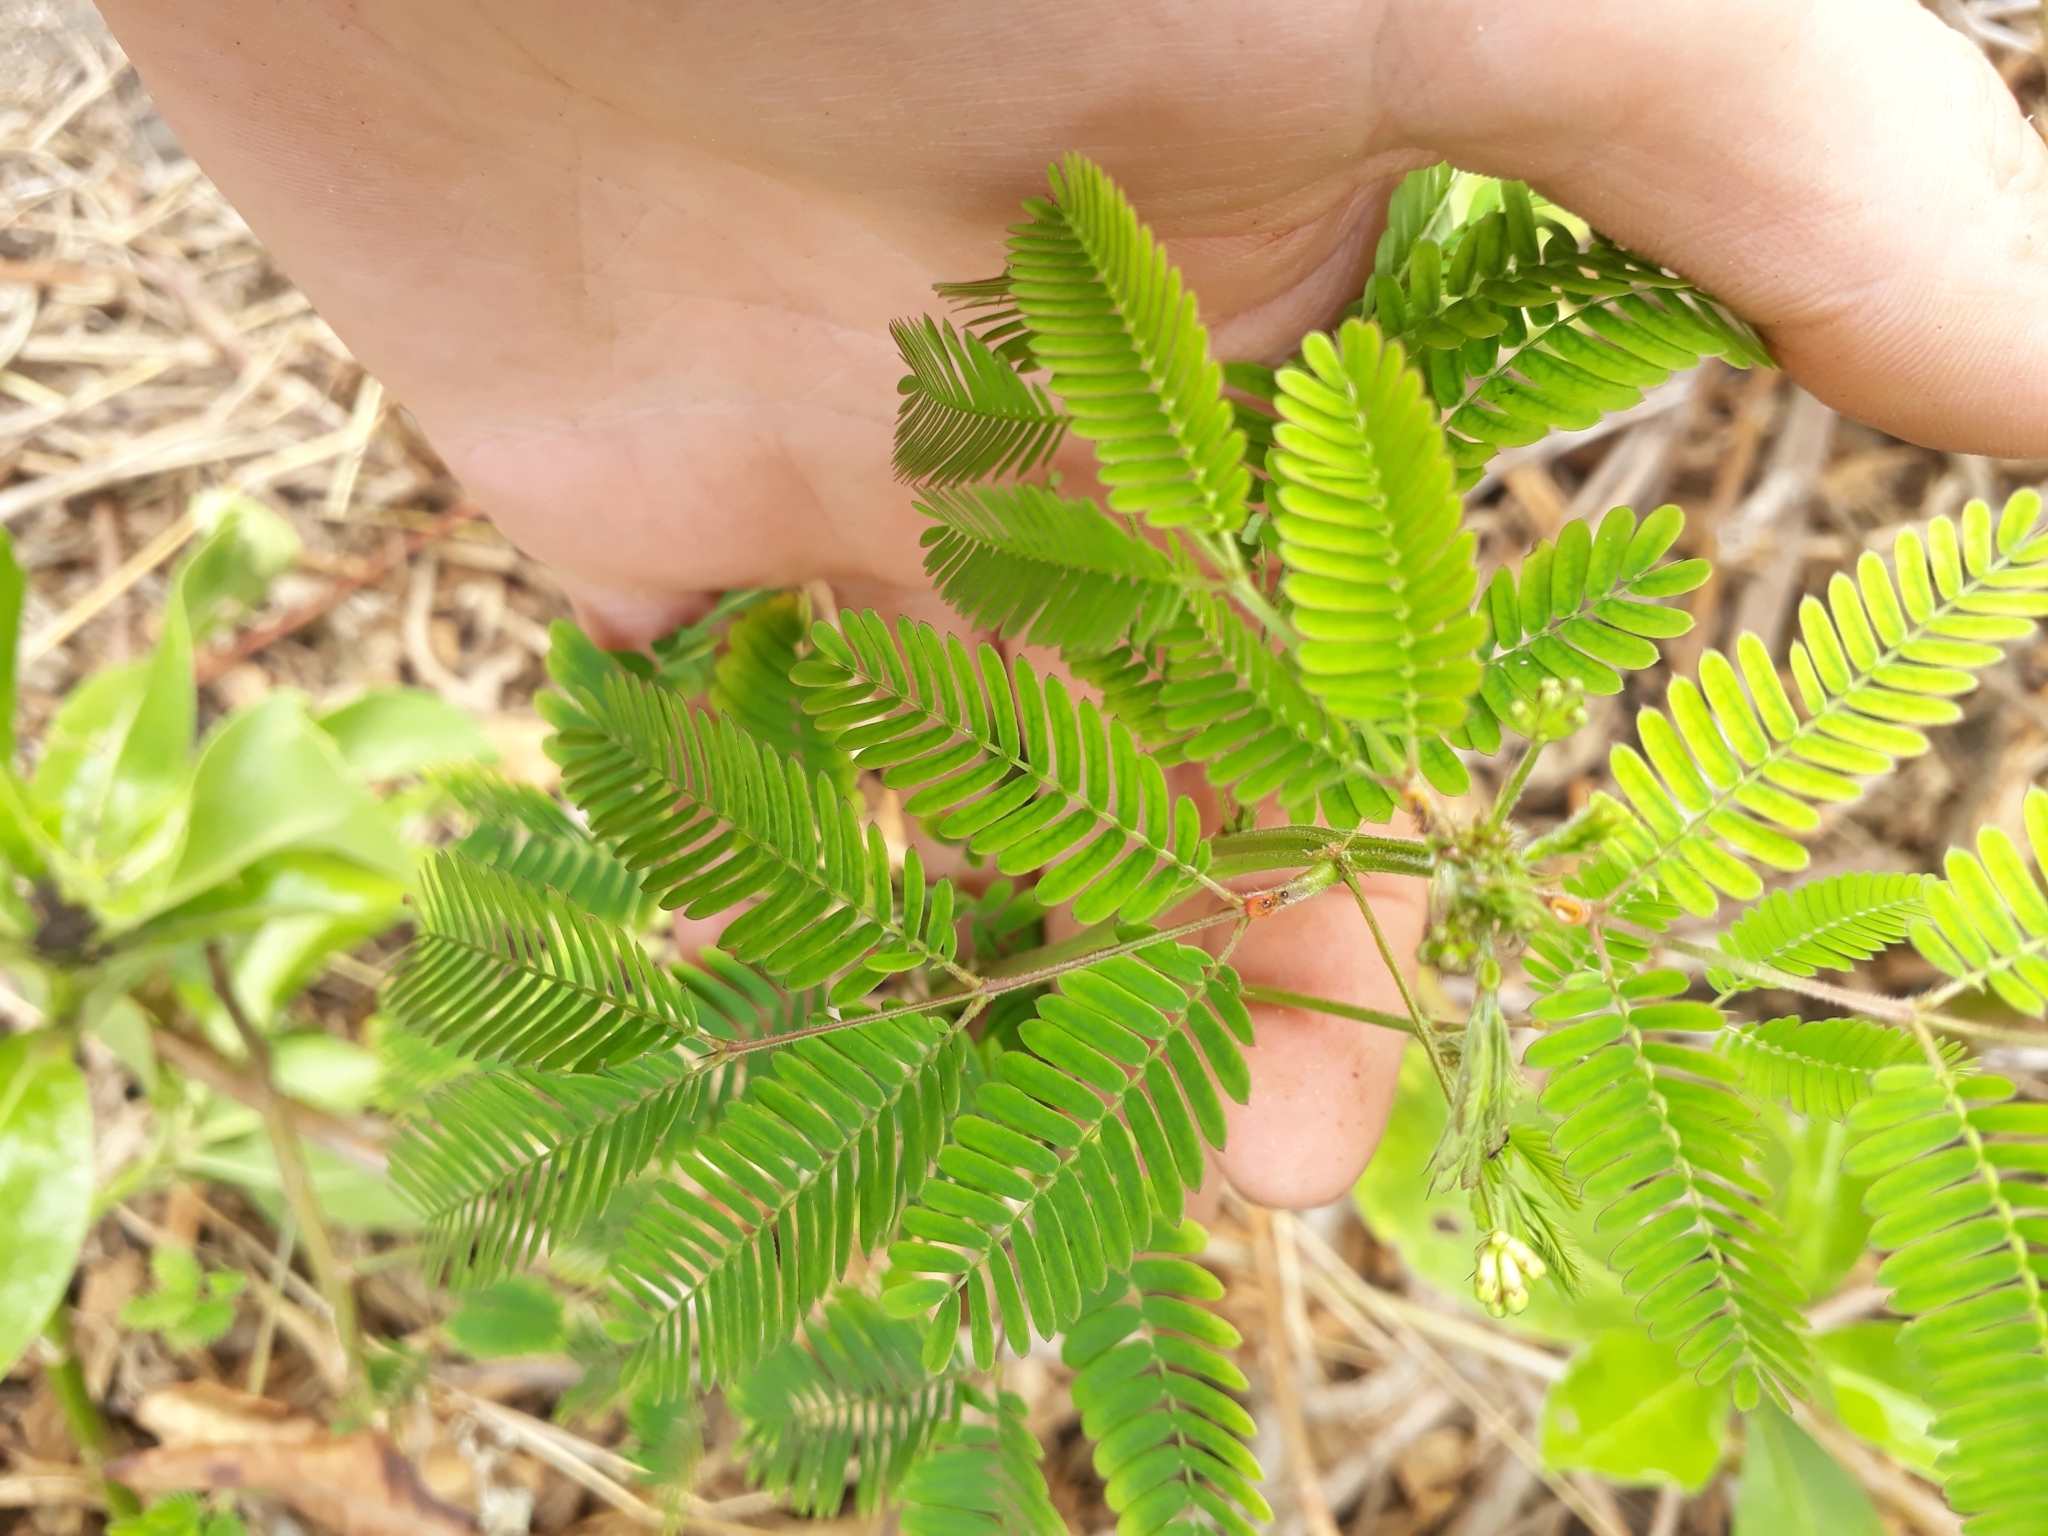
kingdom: Plantae
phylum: Tracheophyta
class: Magnoliopsida
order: Fabales
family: Fabaceae
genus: Desmanthus
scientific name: Desmanthus virgatus
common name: Wild tantan
